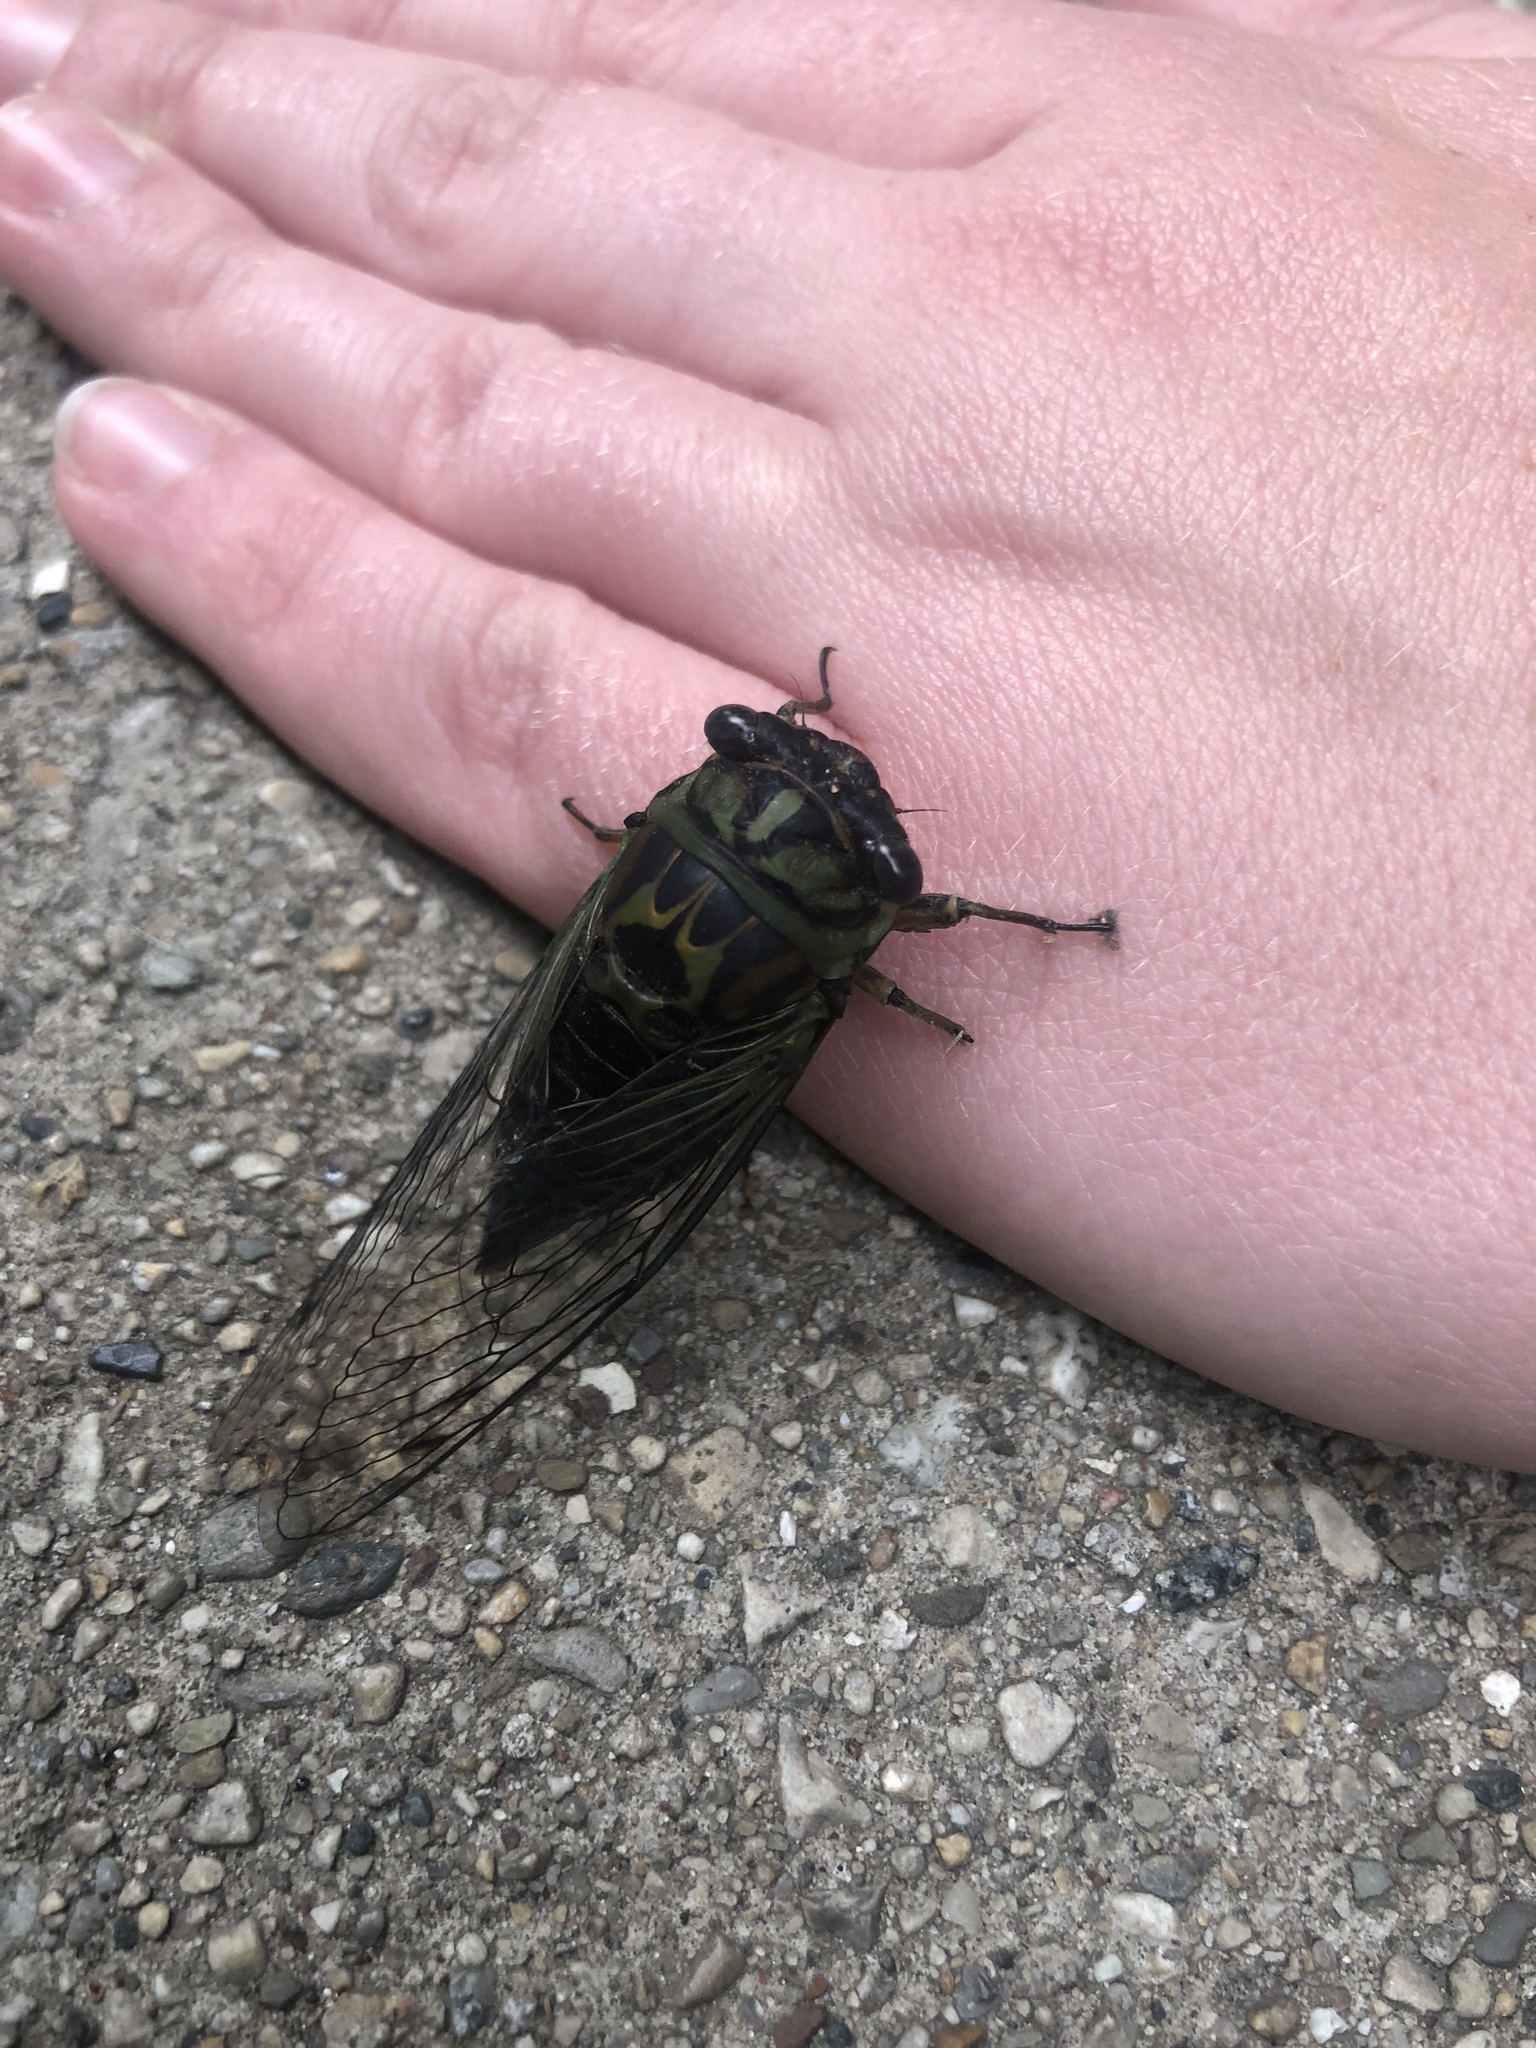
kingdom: Animalia
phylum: Arthropoda
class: Insecta
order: Hemiptera
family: Cicadidae
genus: Neotibicen
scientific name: Neotibicen linnei
